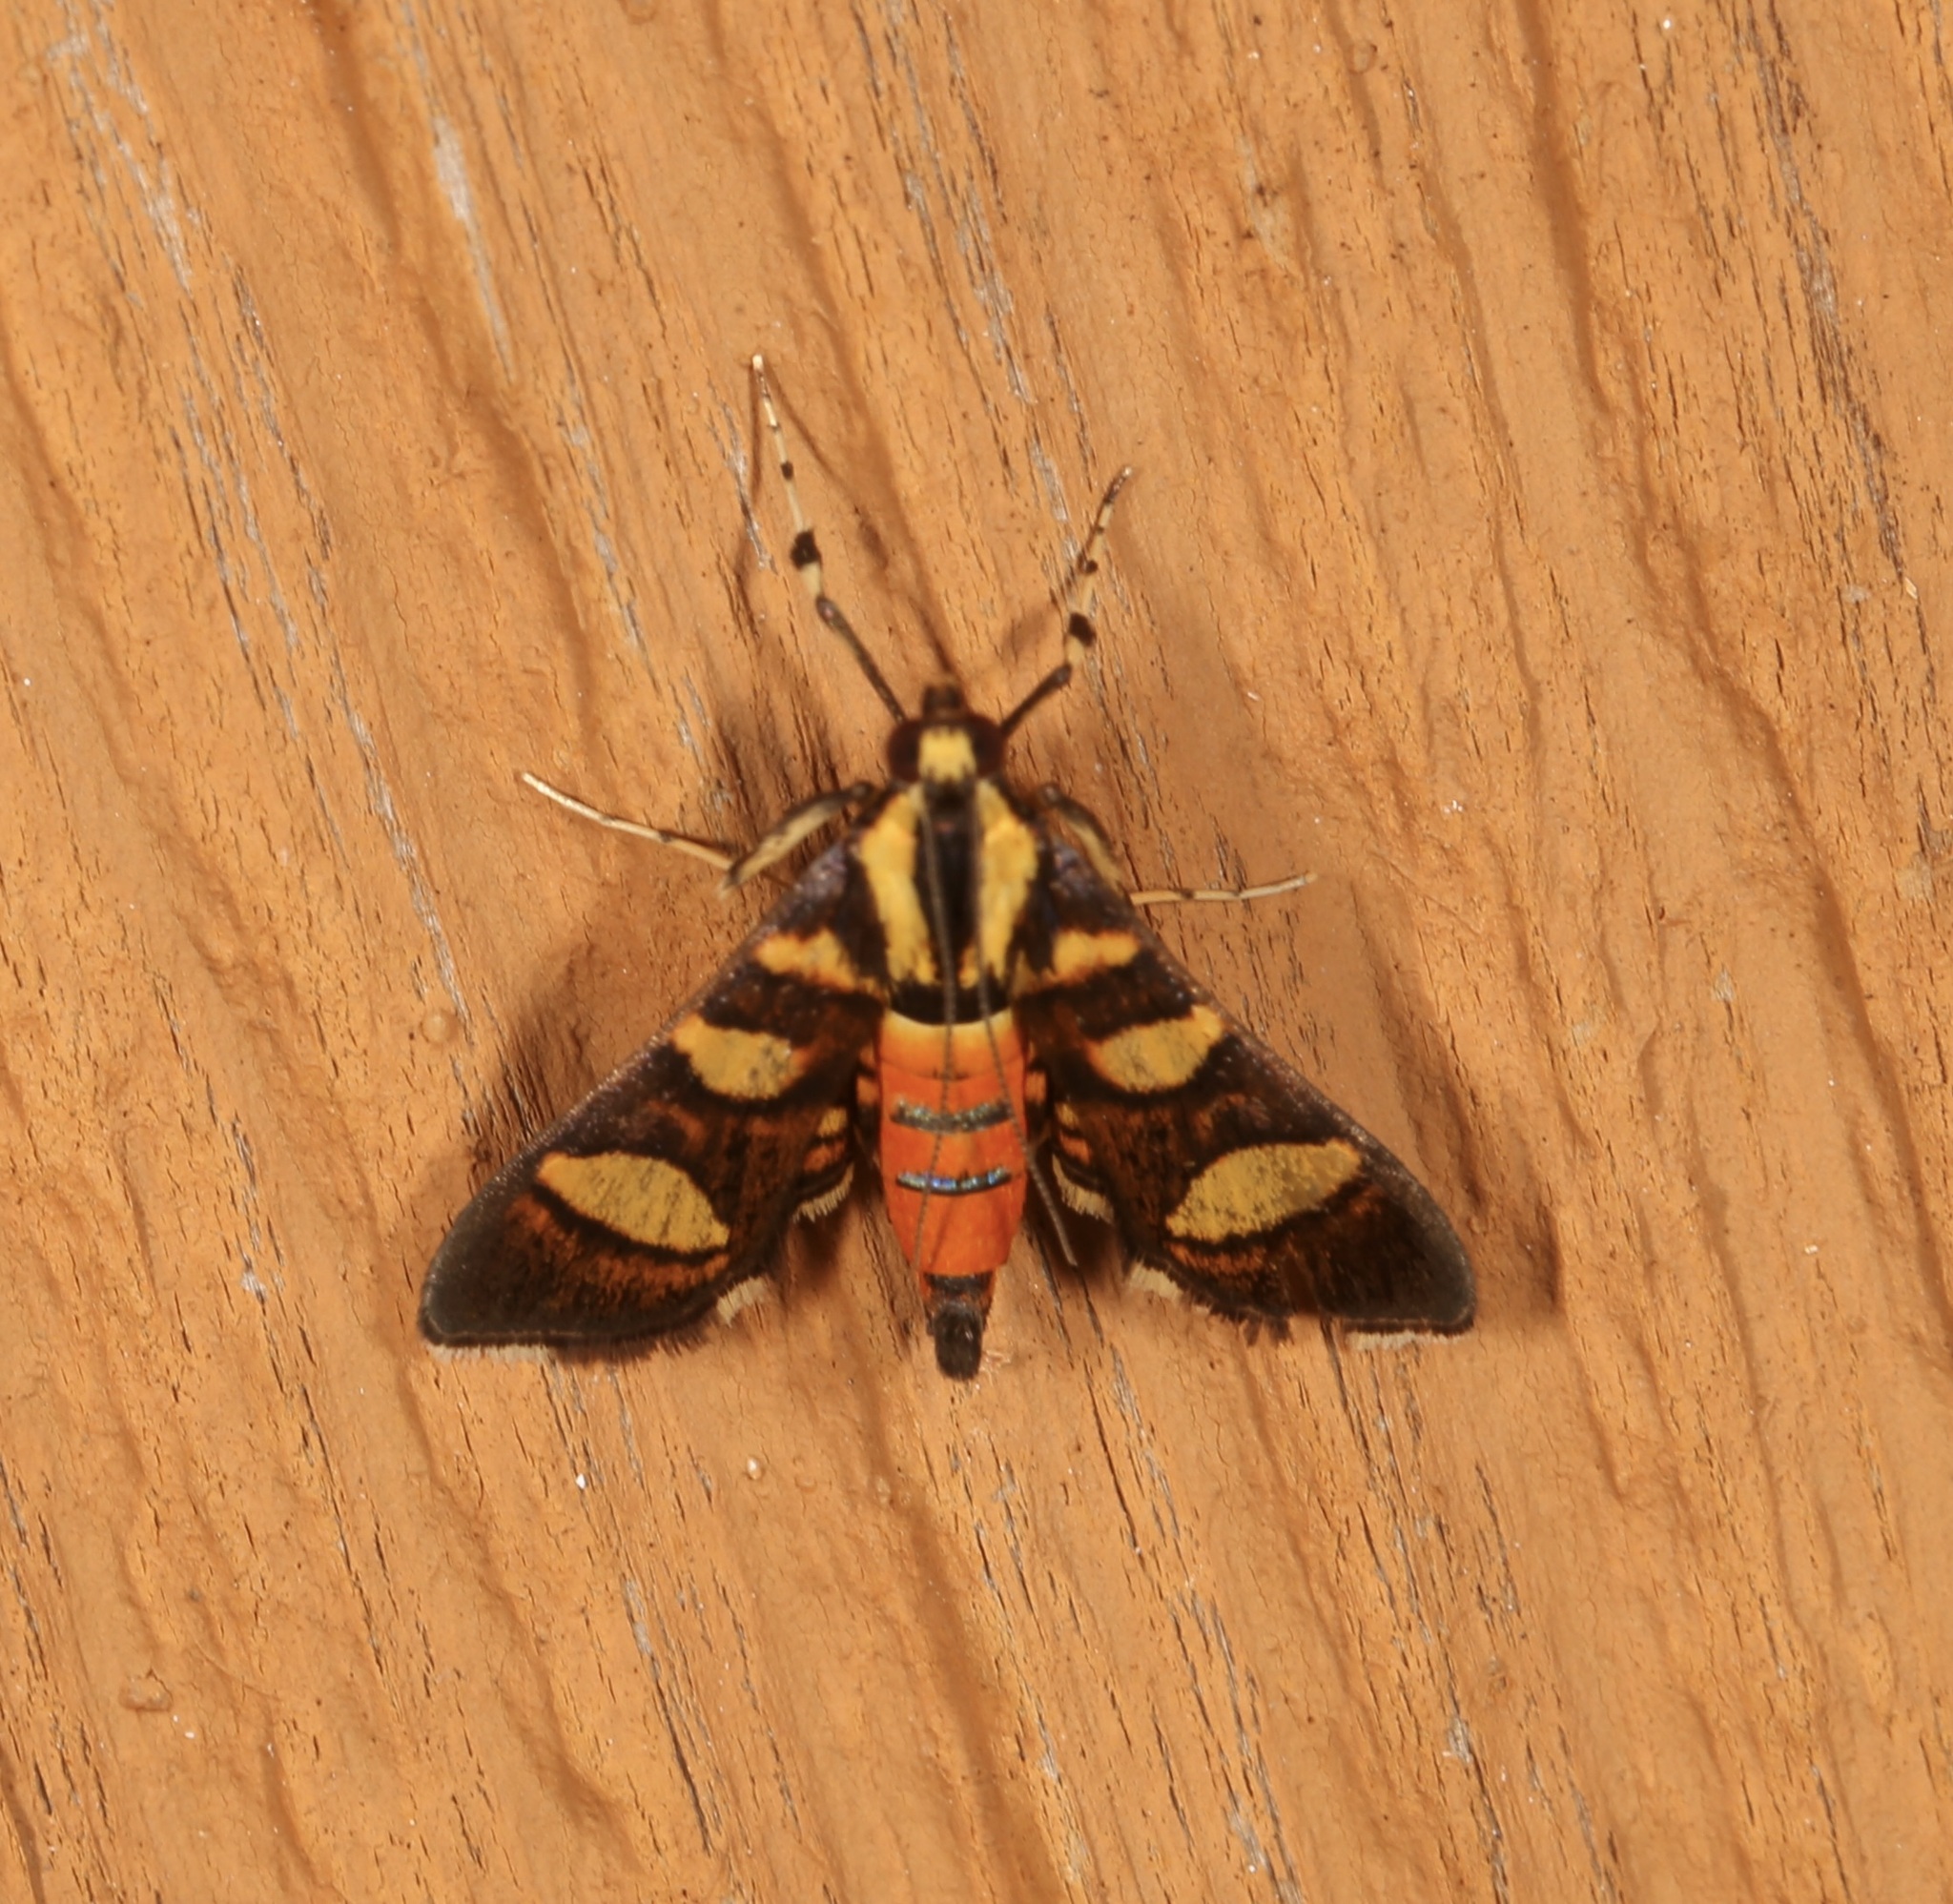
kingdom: Animalia
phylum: Arthropoda
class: Insecta
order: Lepidoptera
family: Crambidae
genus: Syngamia
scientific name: Syngamia florella
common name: Orange-spotted flower moth
